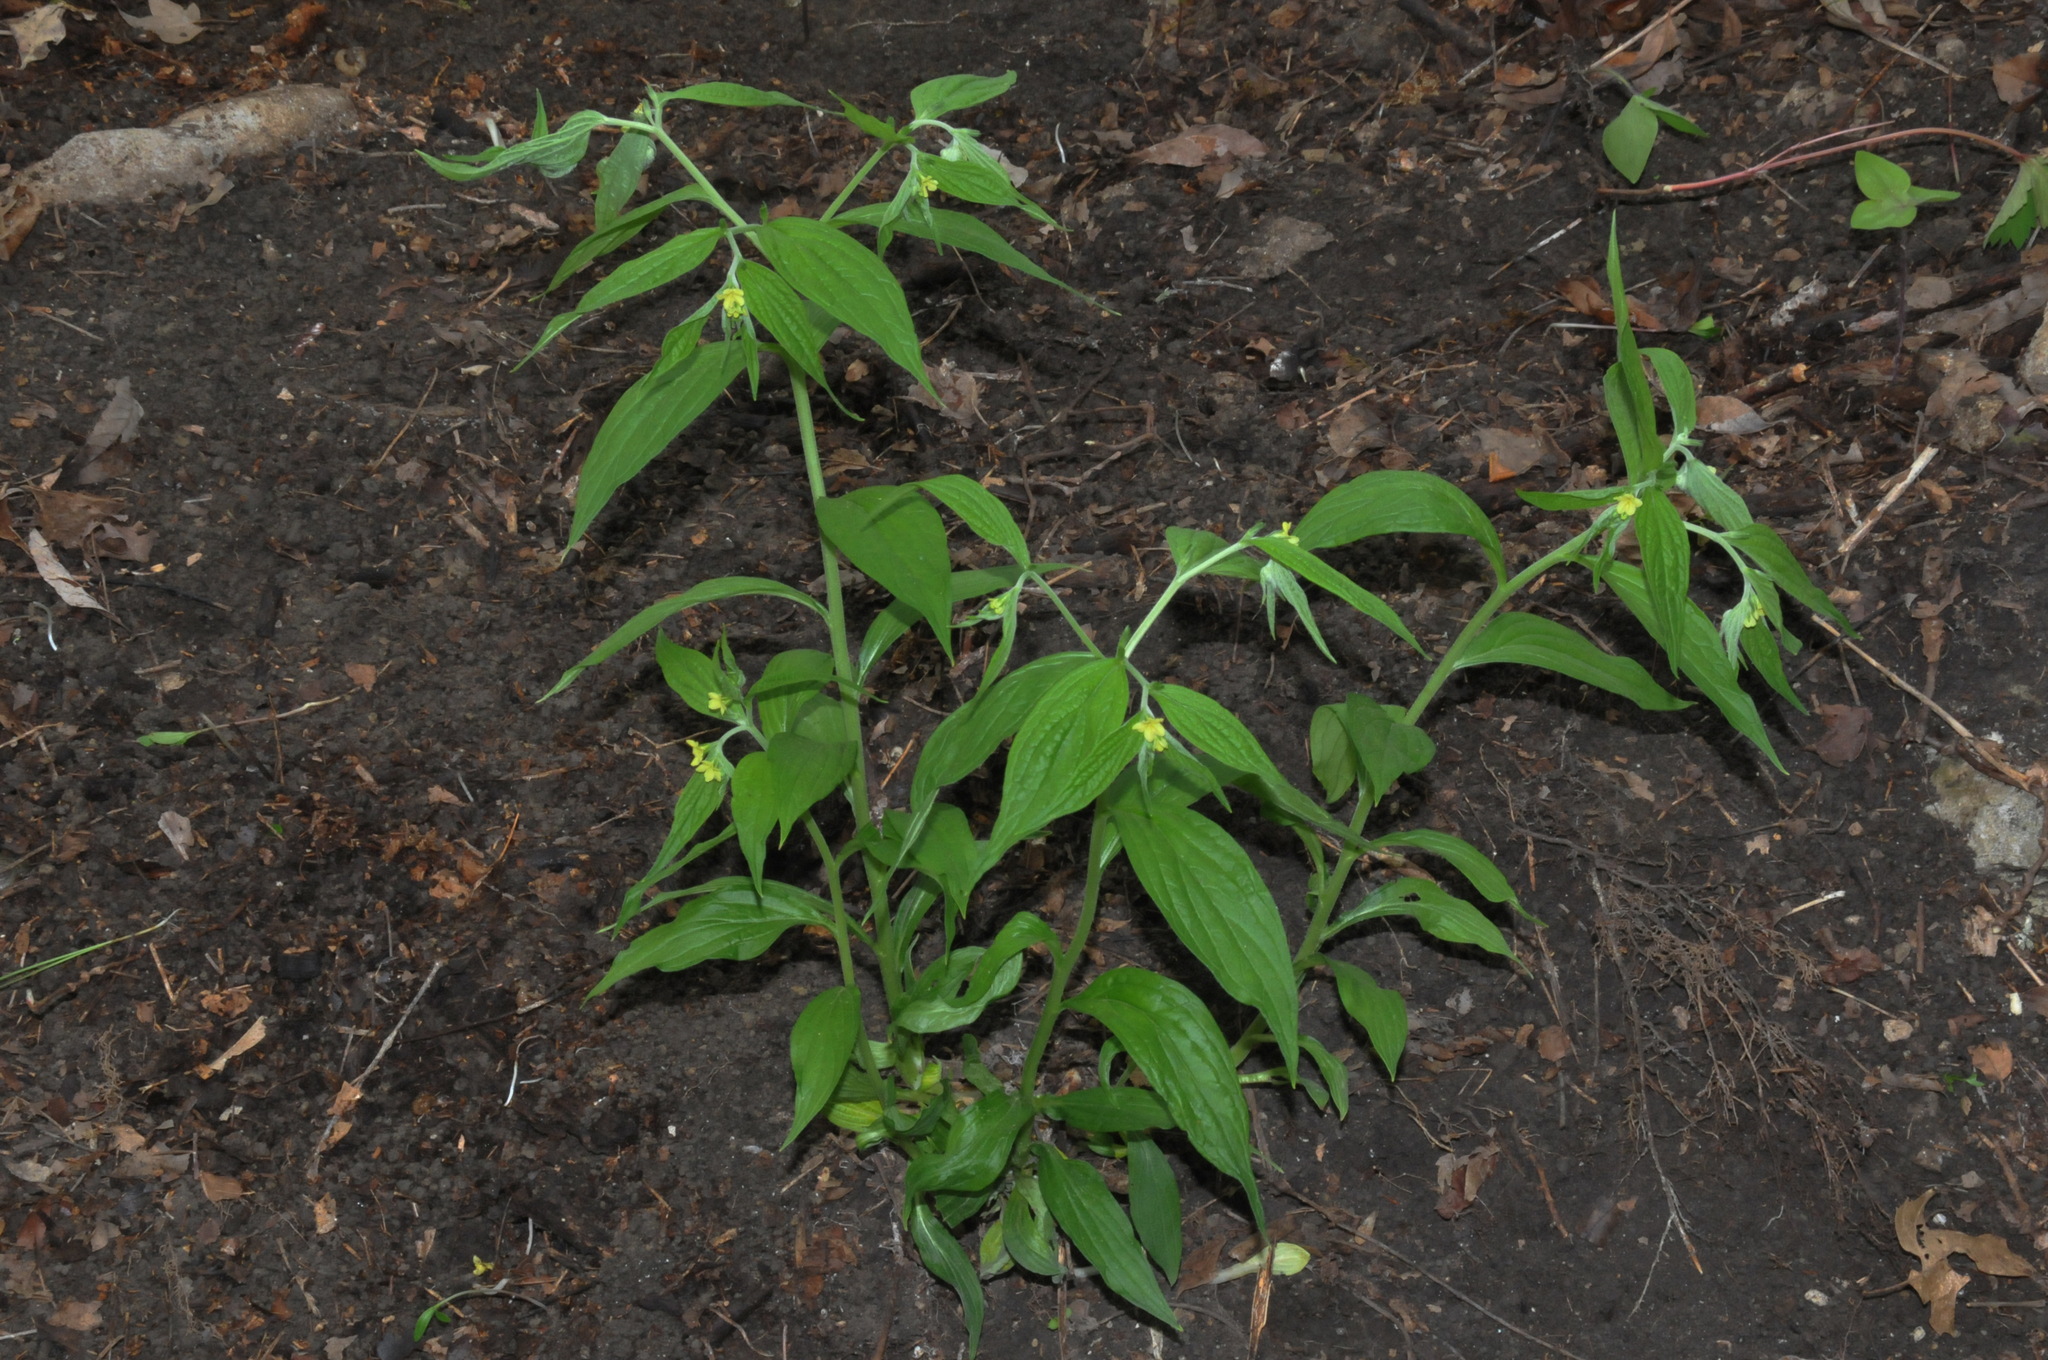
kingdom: Plantae
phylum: Tracheophyta
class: Magnoliopsida
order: Boraginales
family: Boraginaceae
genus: Lithospermum
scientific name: Lithospermum latifolium
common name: American gromwell
